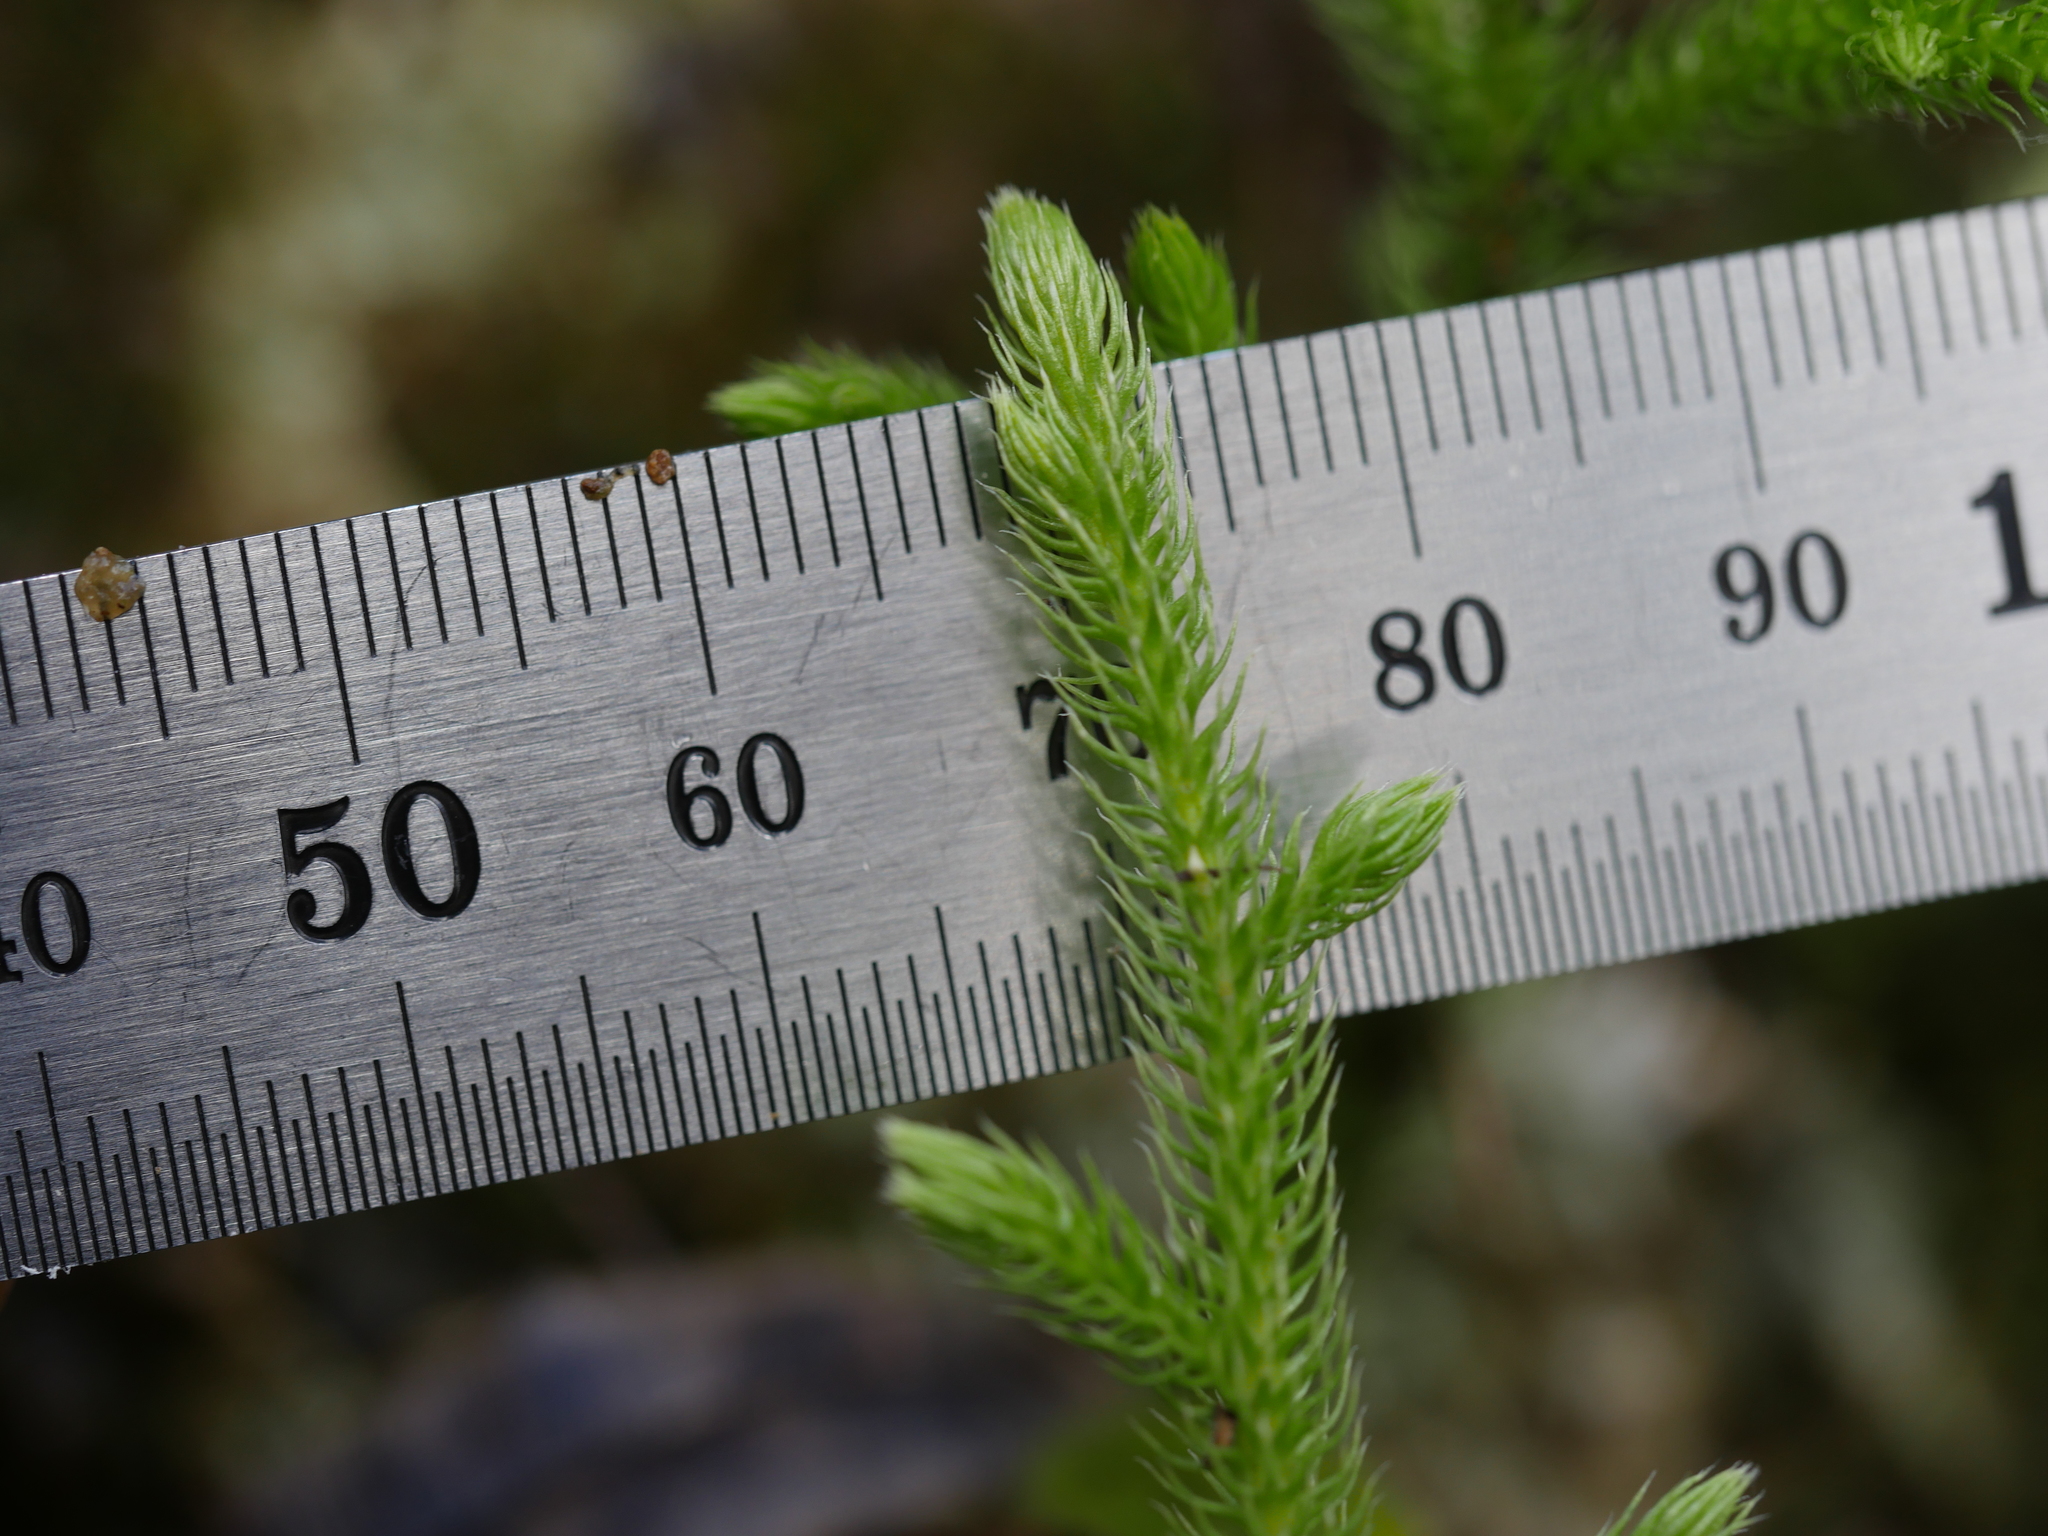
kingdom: Plantae
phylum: Tracheophyta
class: Lycopodiopsida
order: Lycopodiales
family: Lycopodiaceae
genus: Palhinhaea
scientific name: Palhinhaea cernua
